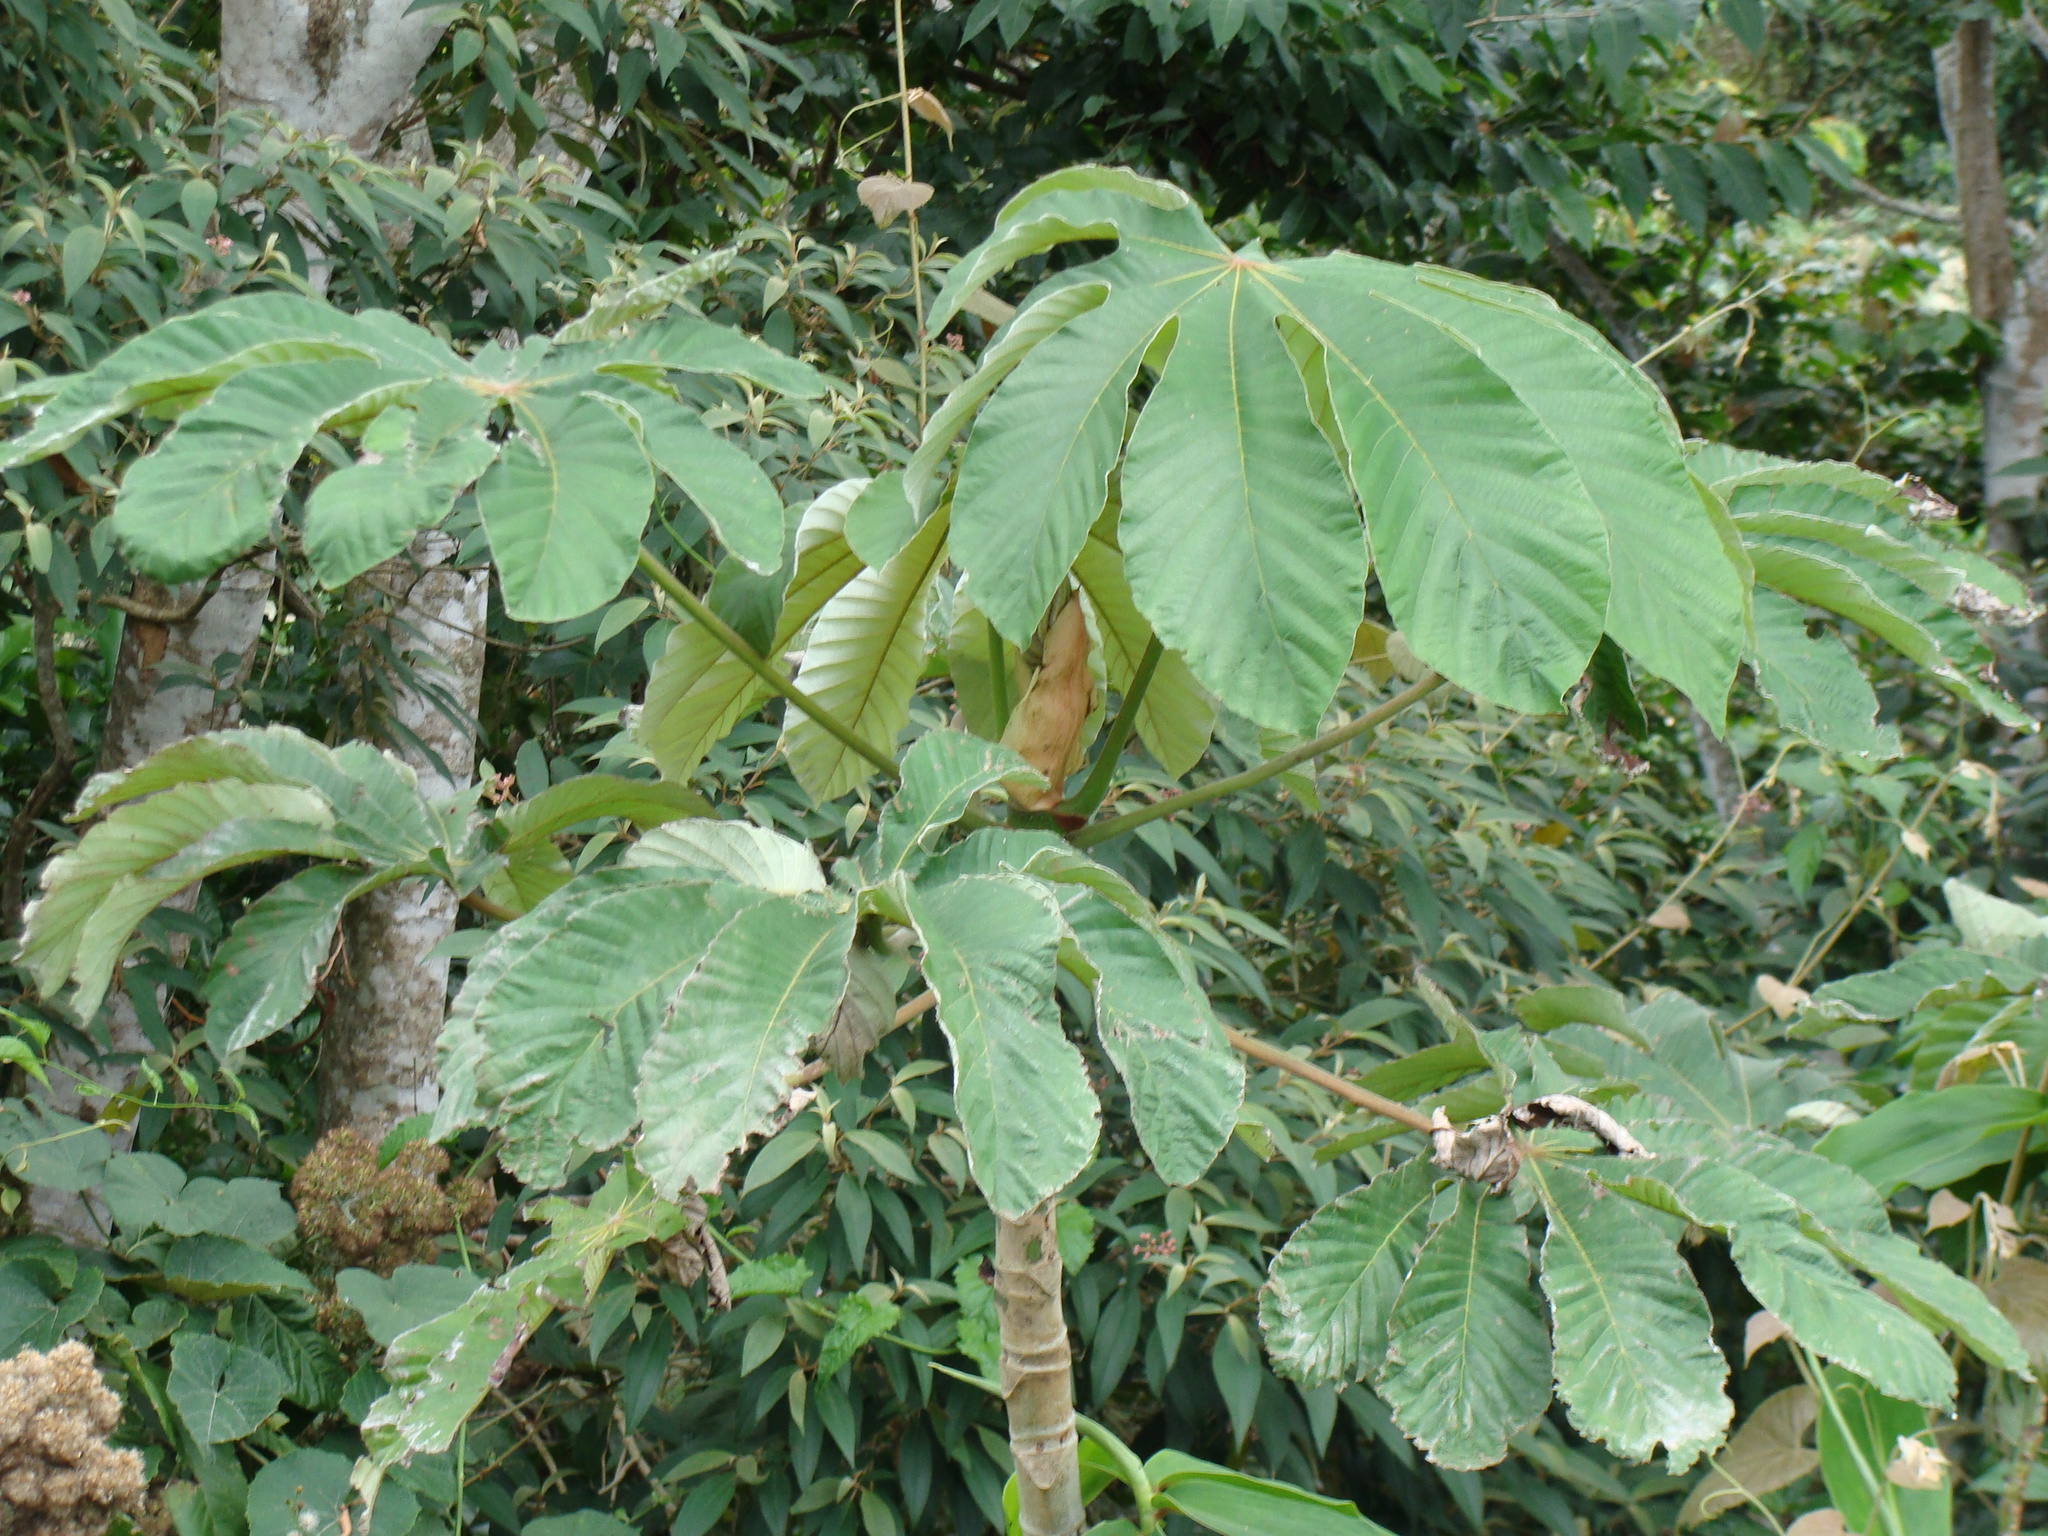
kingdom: Plantae
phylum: Tracheophyta
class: Magnoliopsida
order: Rosales
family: Urticaceae
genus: Cecropia
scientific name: Cecropia obtusifolia
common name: Trumpet tree
